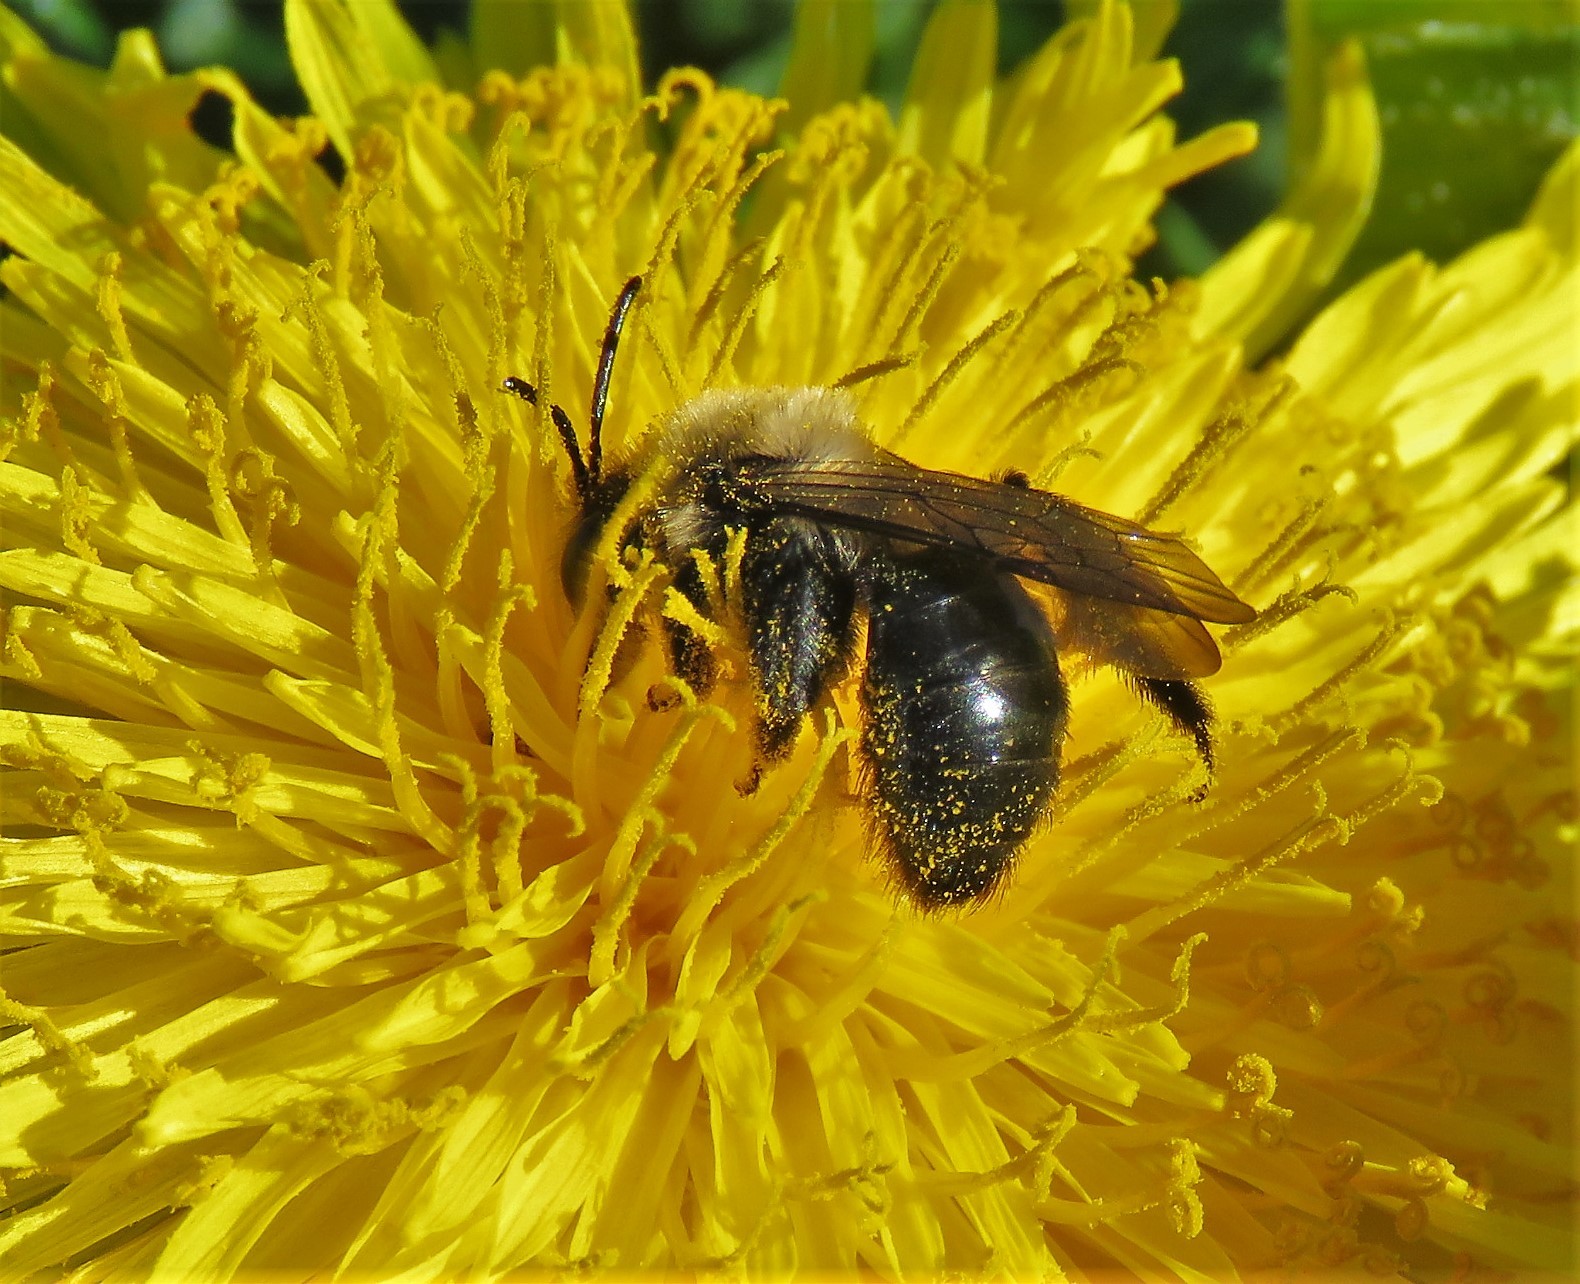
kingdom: Animalia
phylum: Arthropoda
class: Insecta
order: Hymenoptera
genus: Melandrena
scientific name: Melandrena
